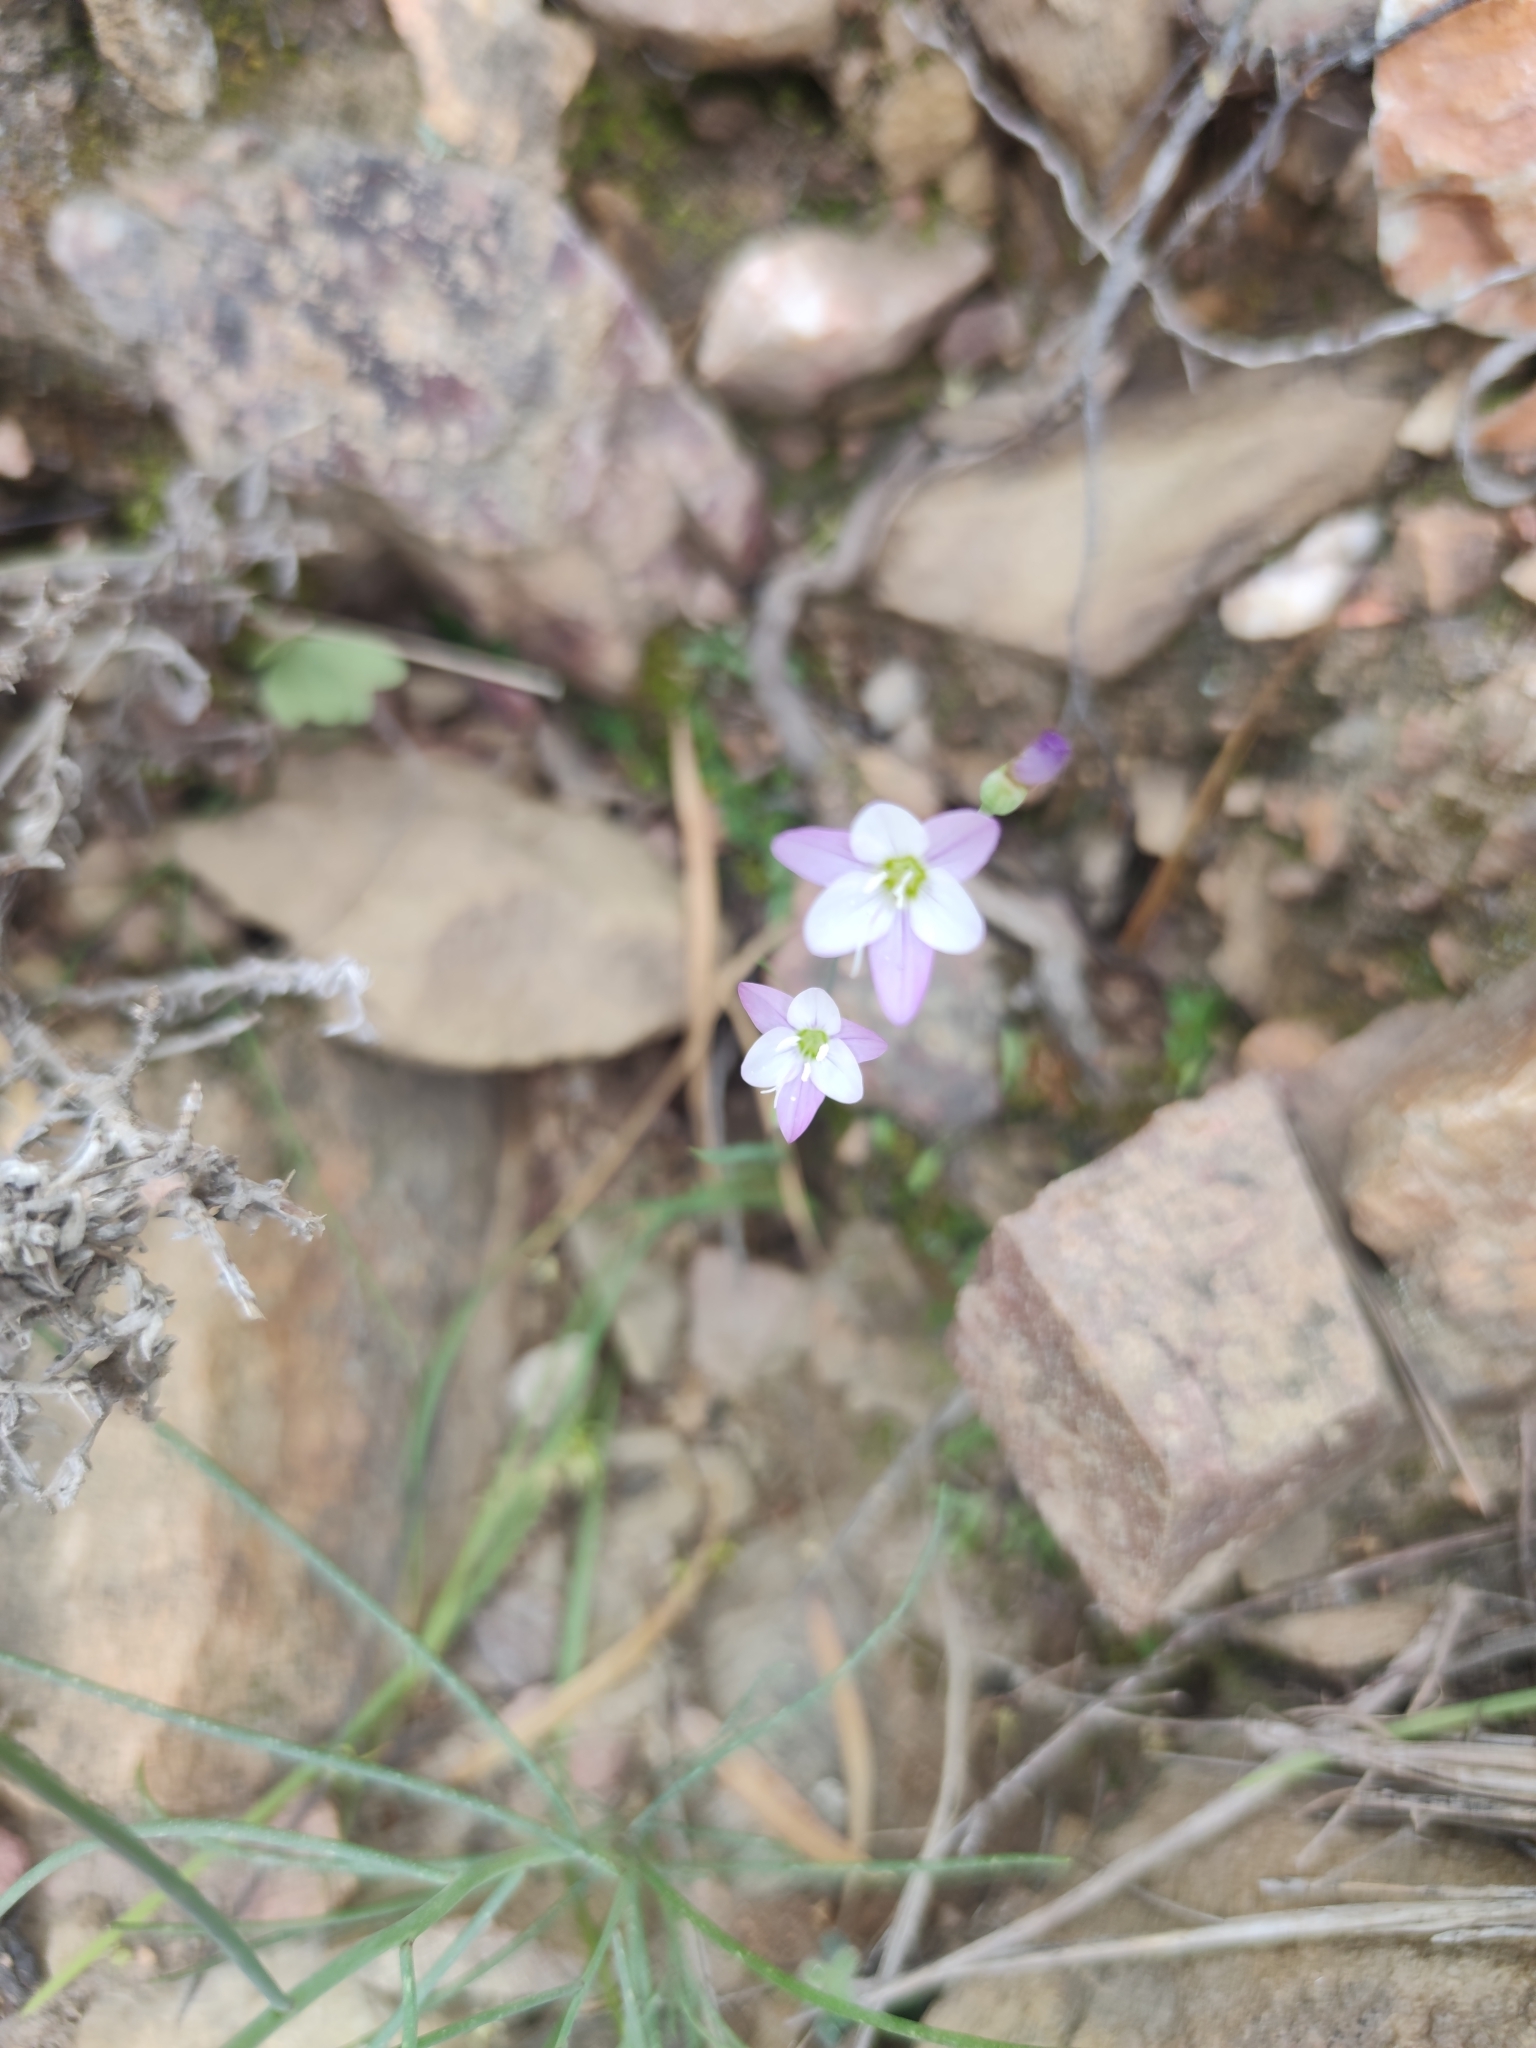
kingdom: Plantae
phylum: Tracheophyta
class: Liliopsida
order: Asparagales
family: Iridaceae
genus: Geissorhiza
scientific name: Geissorhiza delicatula
